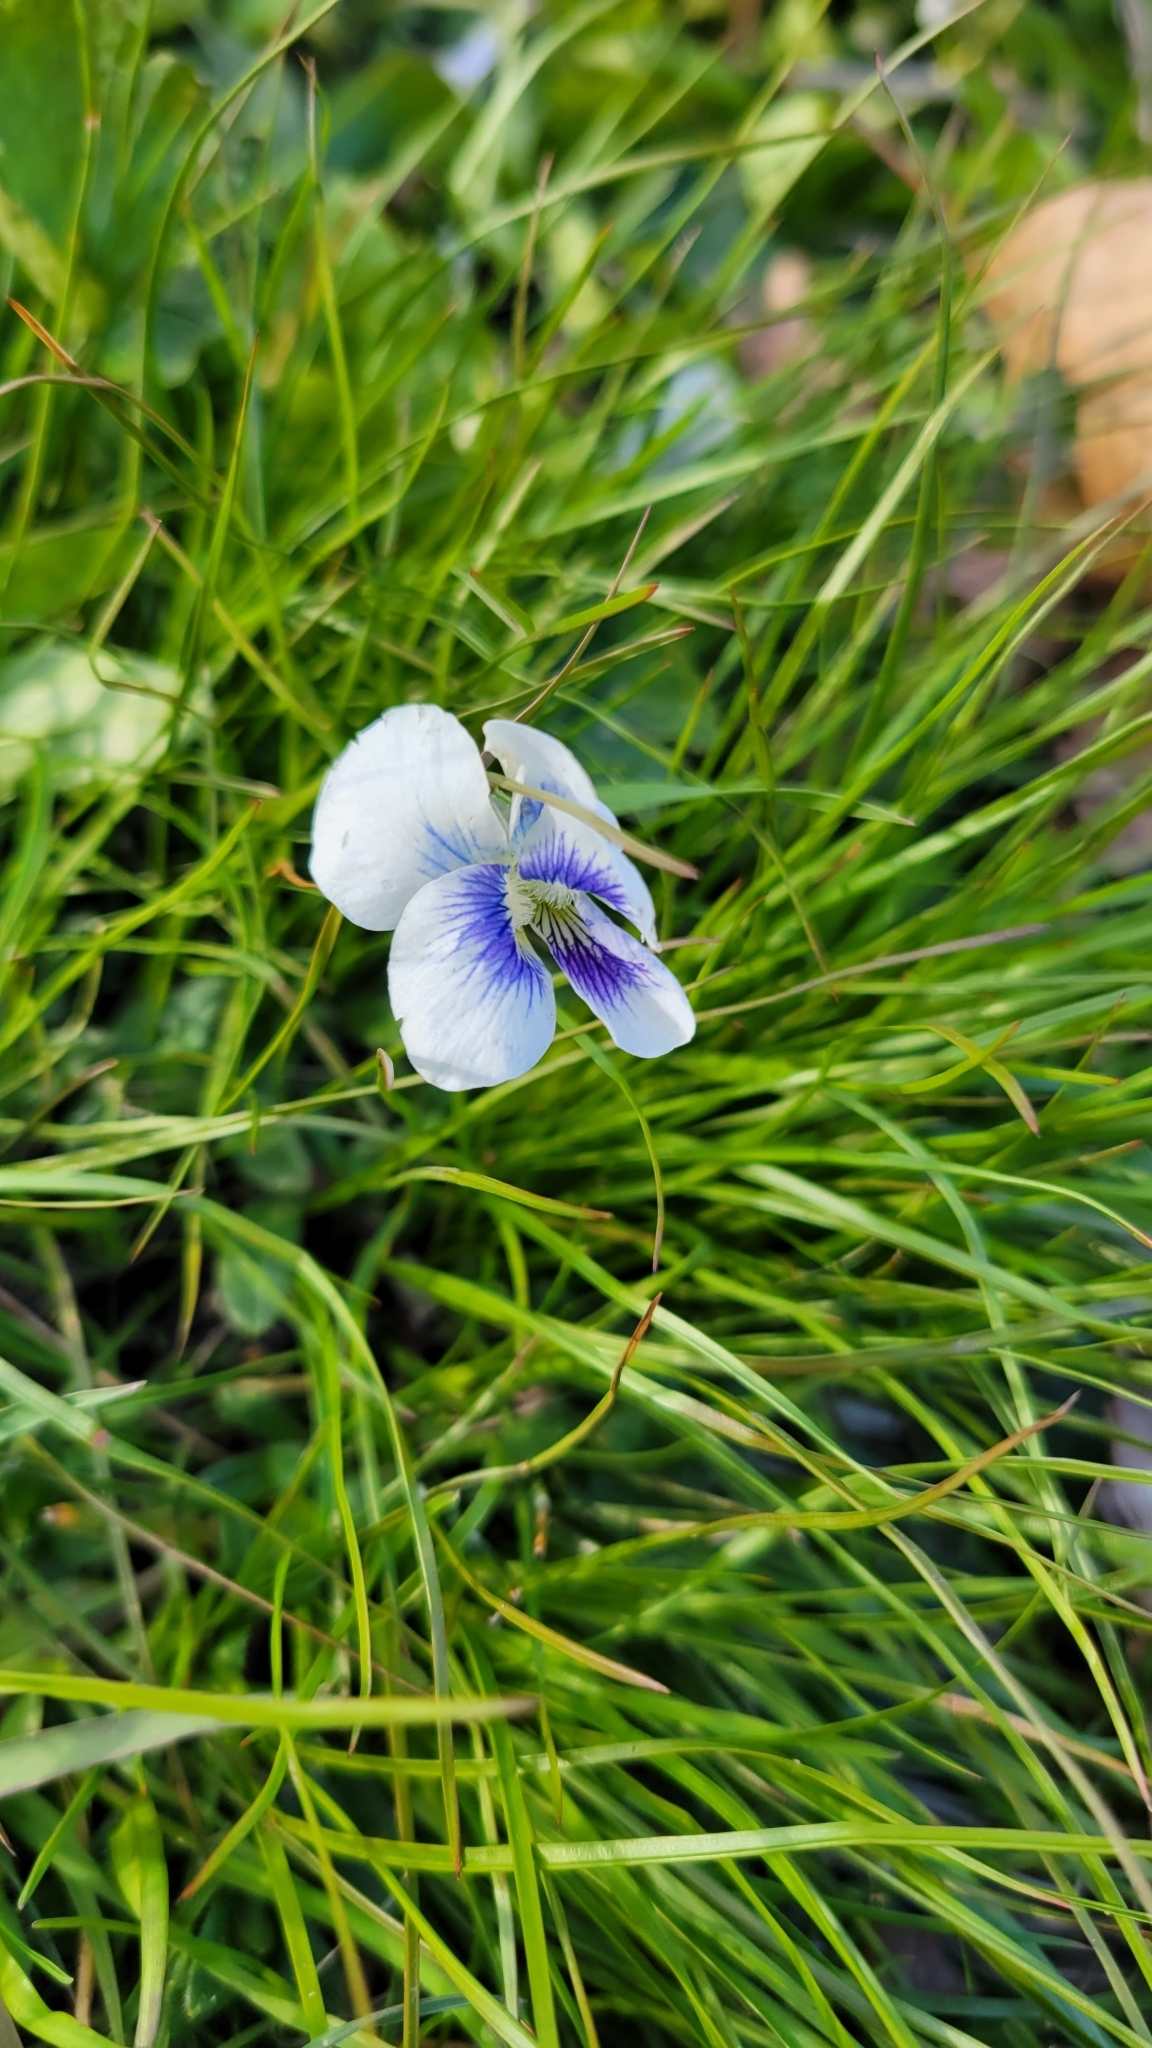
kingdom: Plantae
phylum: Tracheophyta
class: Magnoliopsida
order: Malpighiales
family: Violaceae
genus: Viola
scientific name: Viola sororia
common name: Dooryard violet
